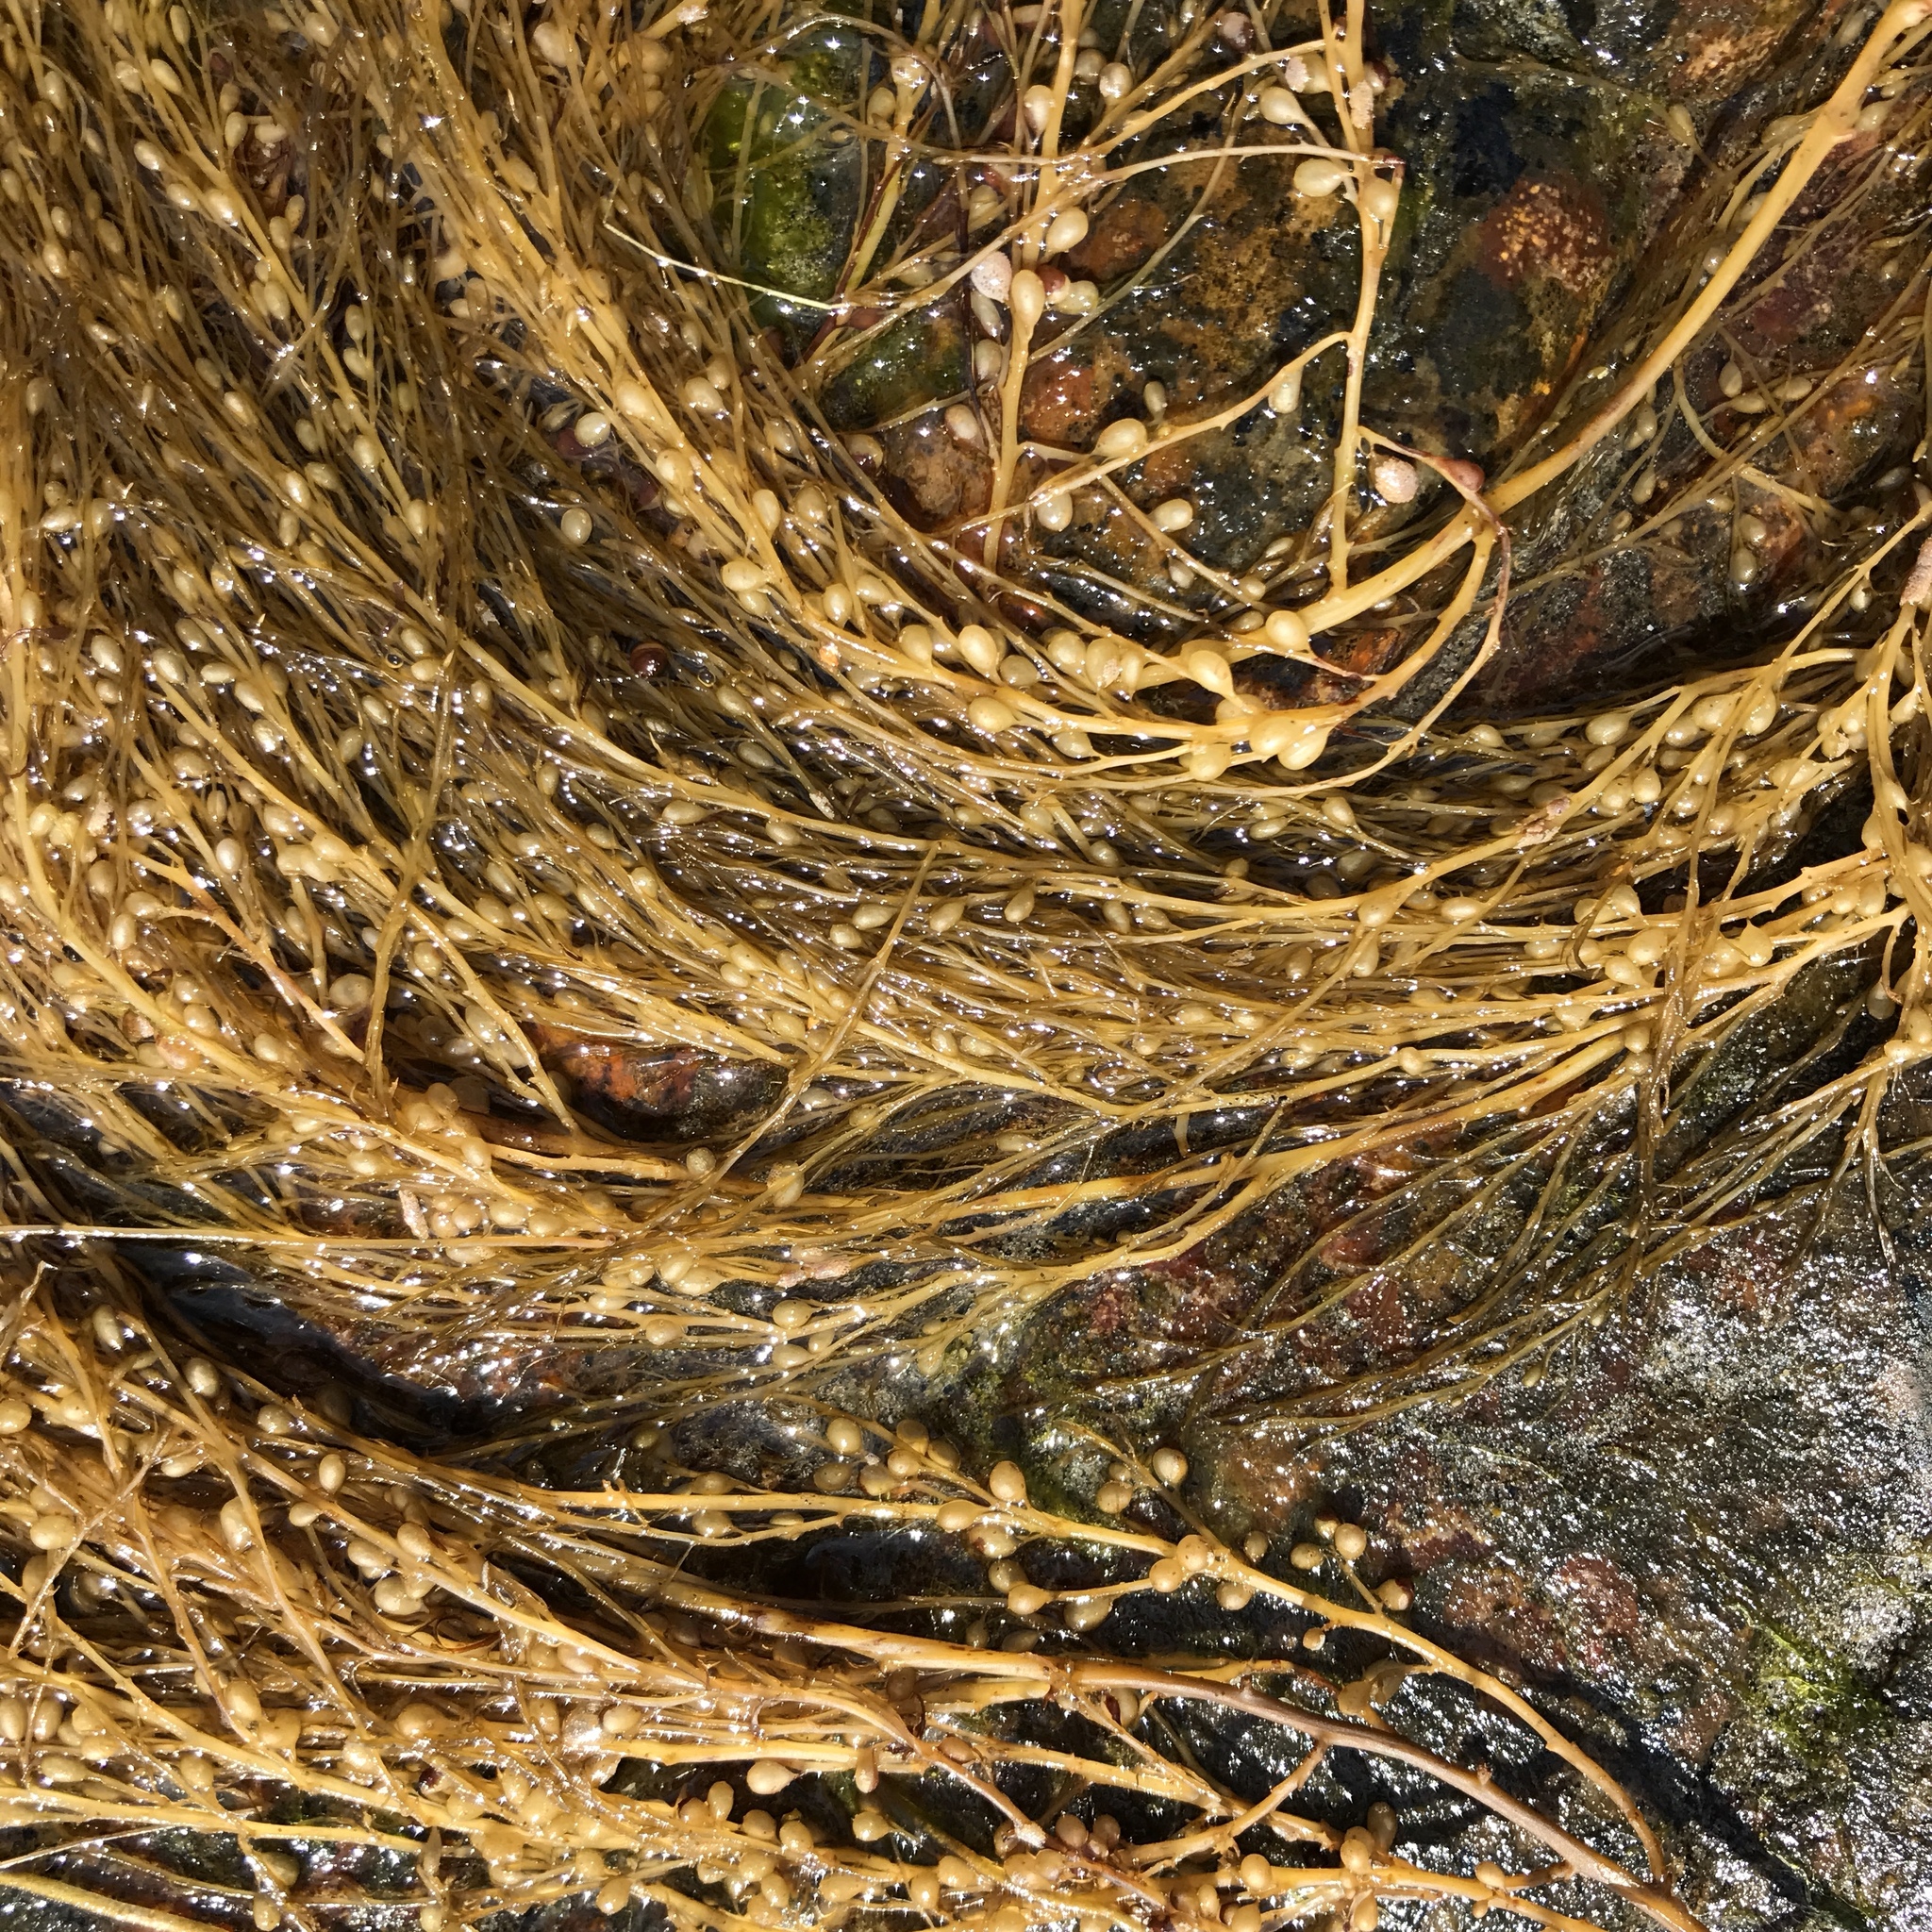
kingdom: Chromista
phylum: Ochrophyta
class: Phaeophyceae
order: Fucales
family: Sargassaceae
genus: Sargassum
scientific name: Sargassum muticum
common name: Japweed
